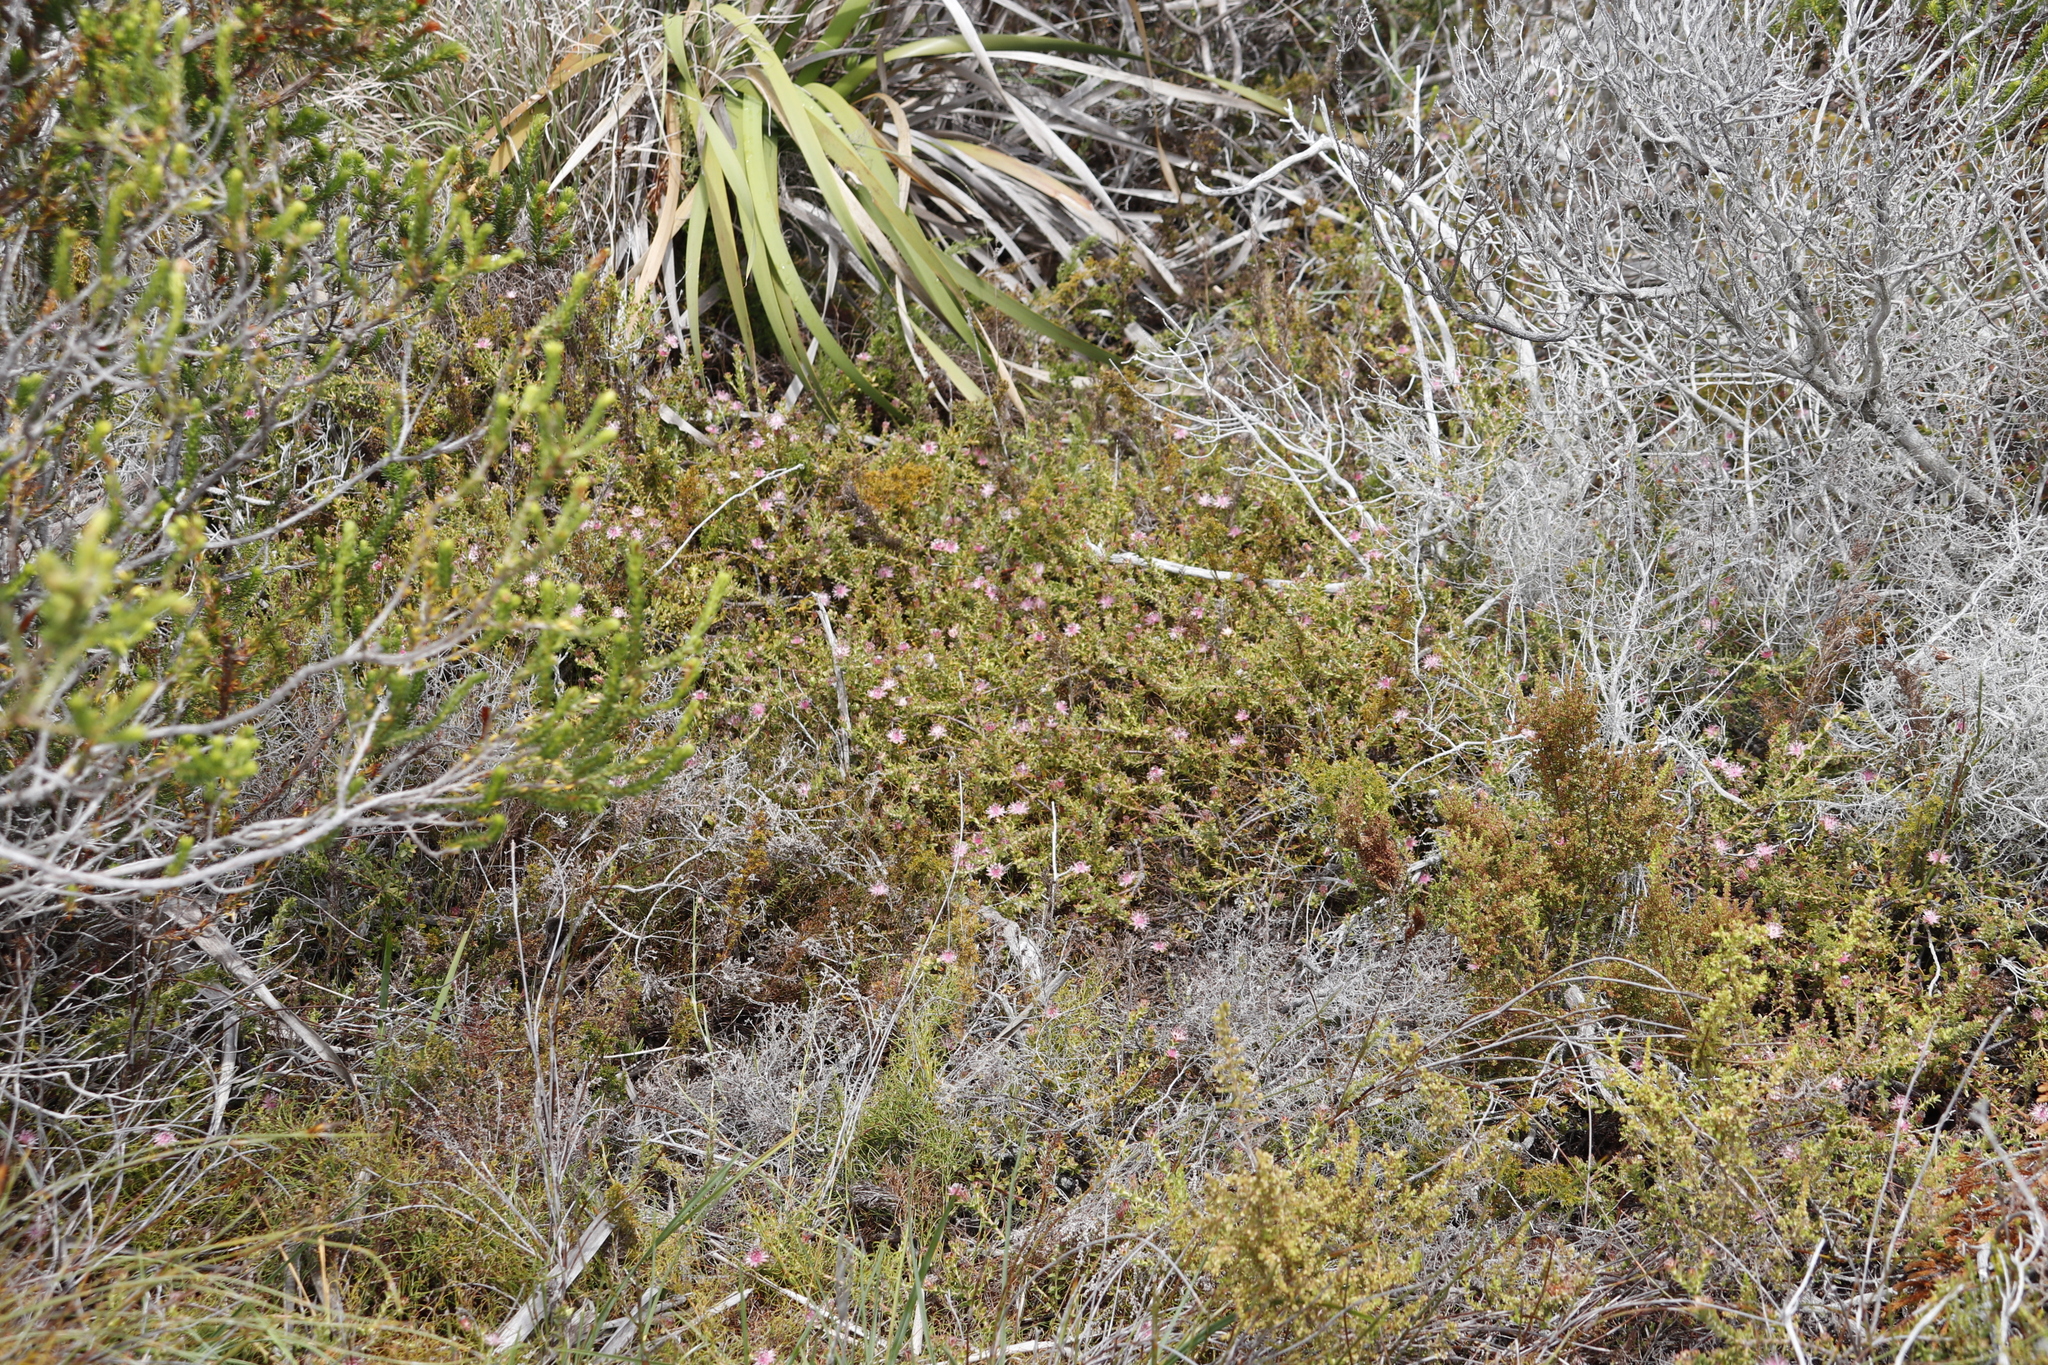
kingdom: Plantae
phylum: Tracheophyta
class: Magnoliopsida
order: Proteales
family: Proteaceae
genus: Diastella
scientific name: Diastella divaricata
